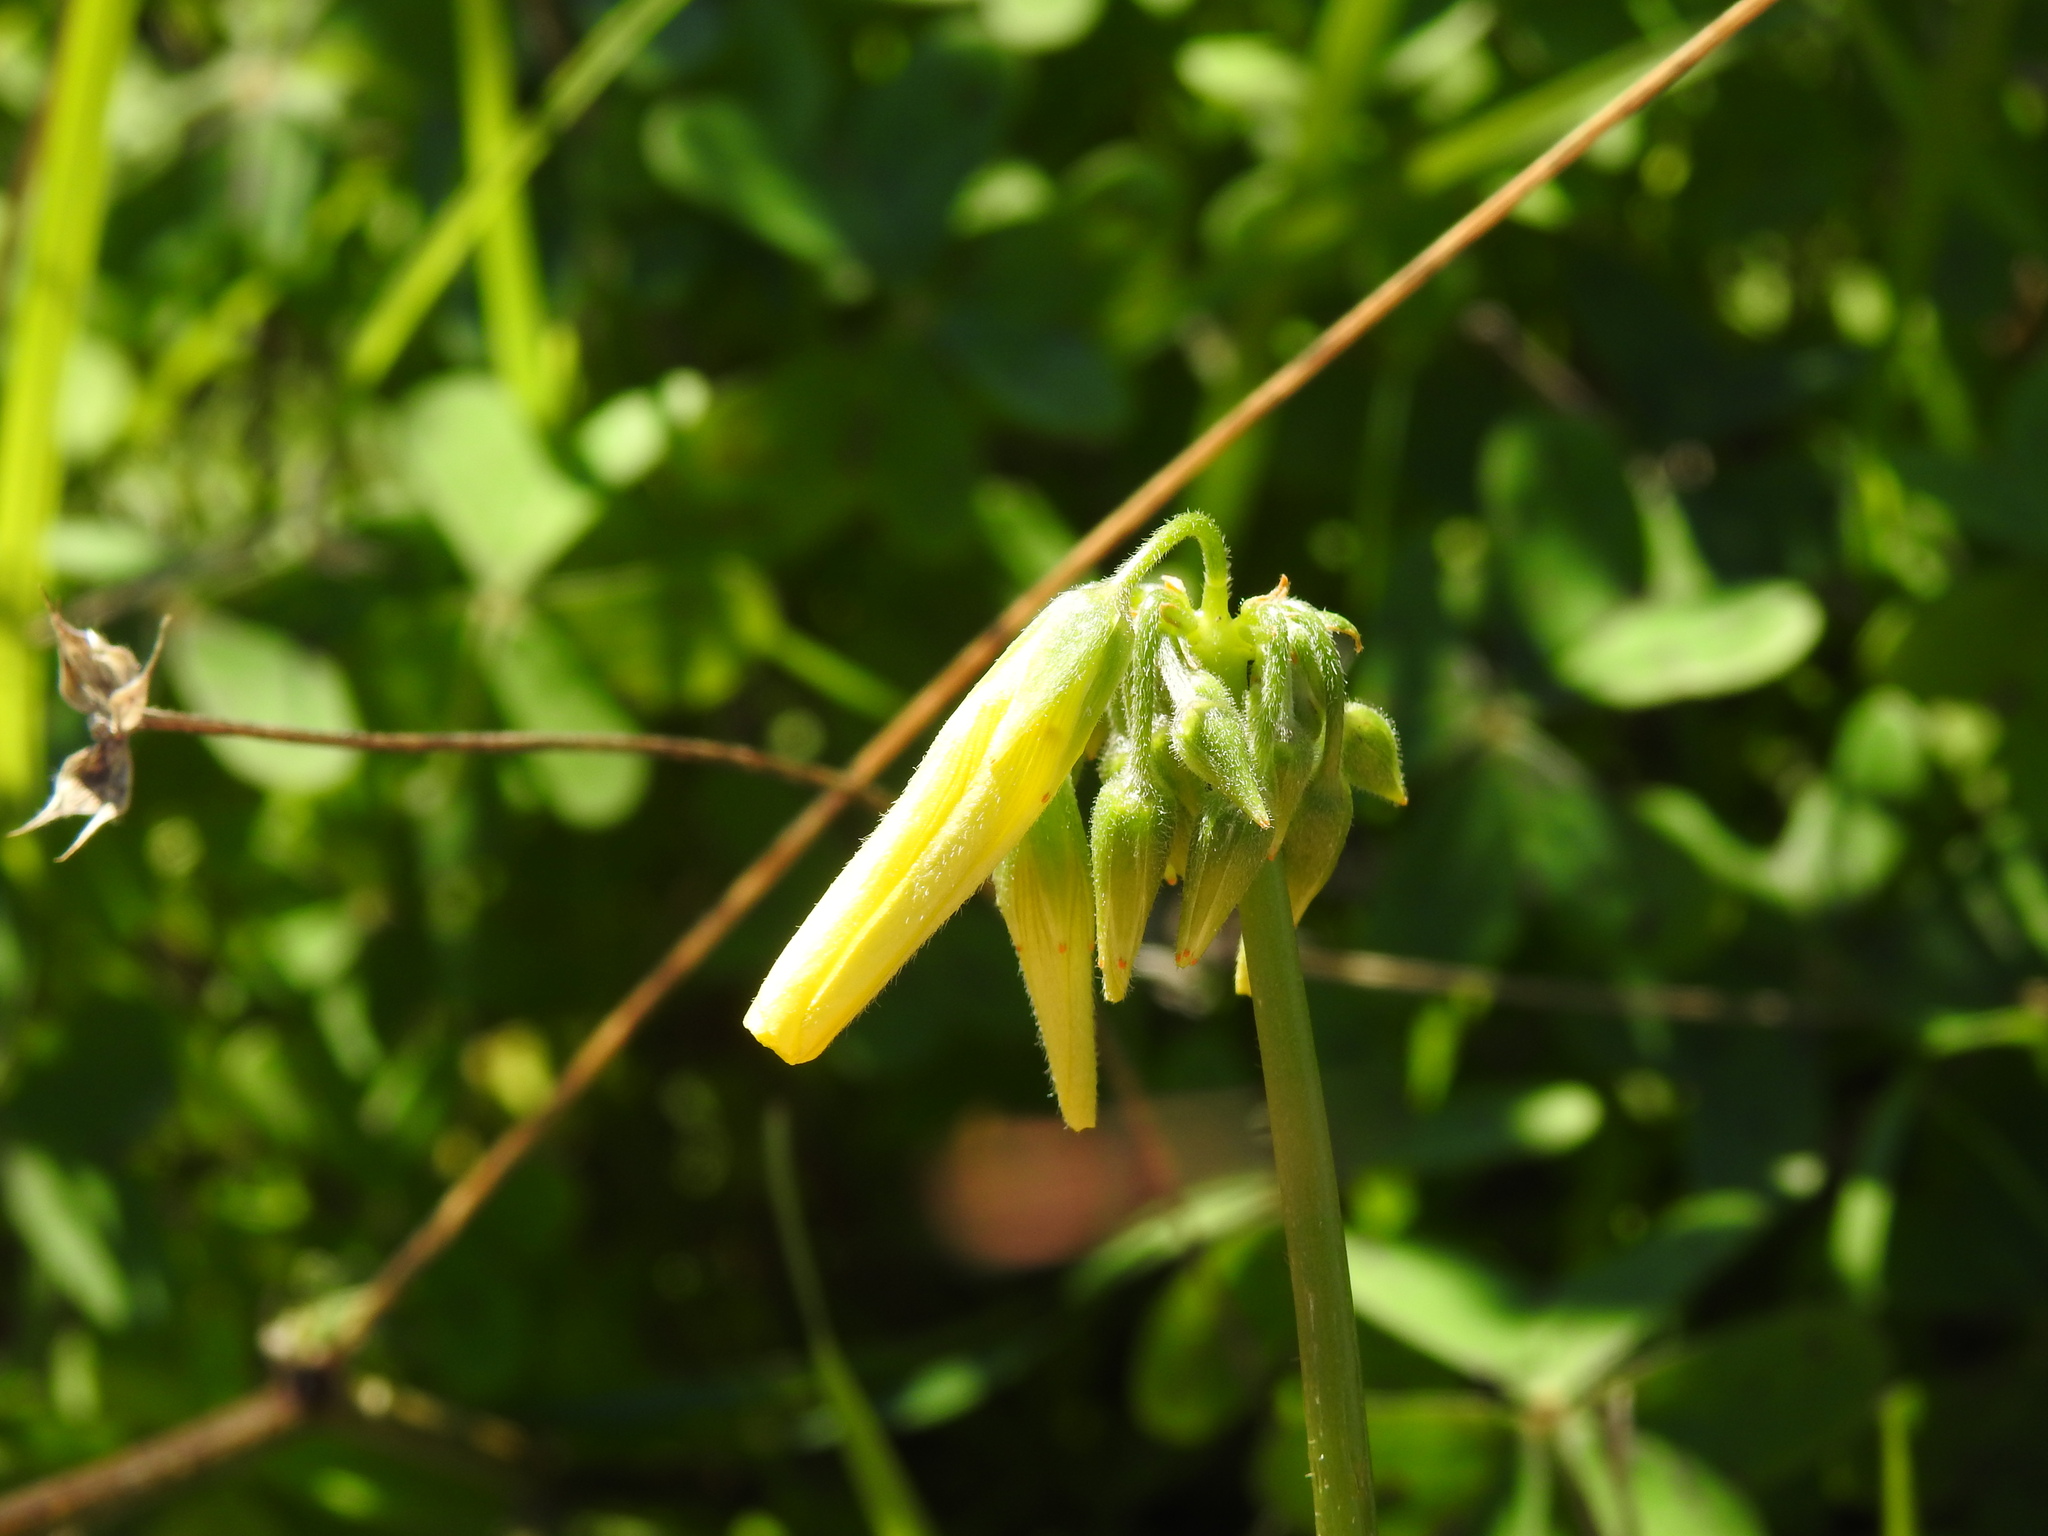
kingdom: Plantae
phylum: Tracheophyta
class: Magnoliopsida
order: Oxalidales
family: Oxalidaceae
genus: Oxalis
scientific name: Oxalis pes-caprae
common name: Bermuda-buttercup
